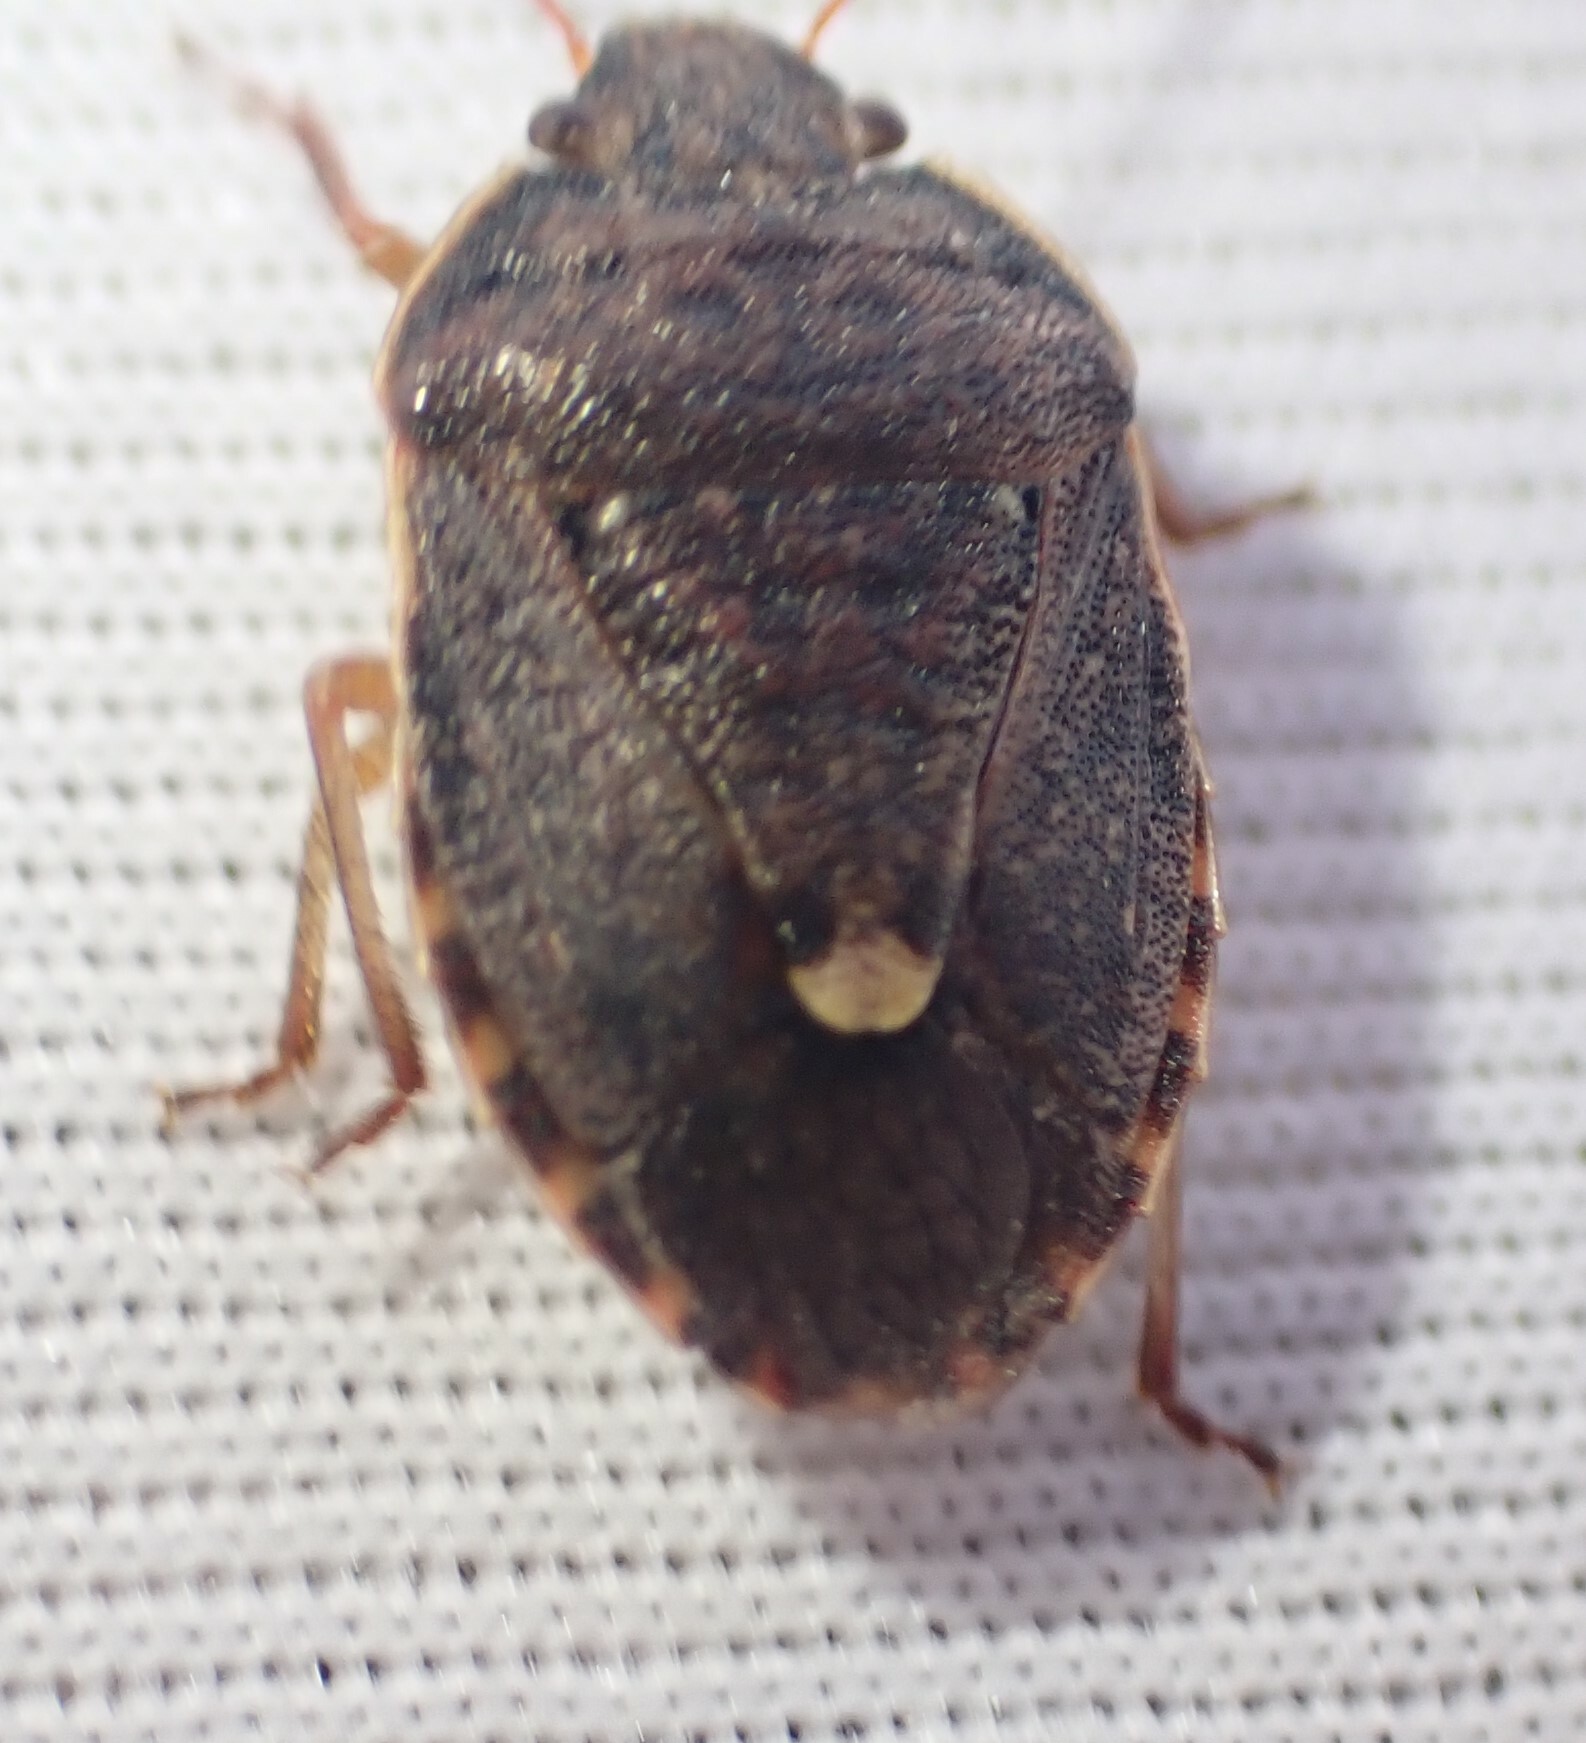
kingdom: Animalia
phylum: Arthropoda
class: Insecta
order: Hemiptera
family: Pentatomidae
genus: Dictyotus
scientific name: Dictyotus
